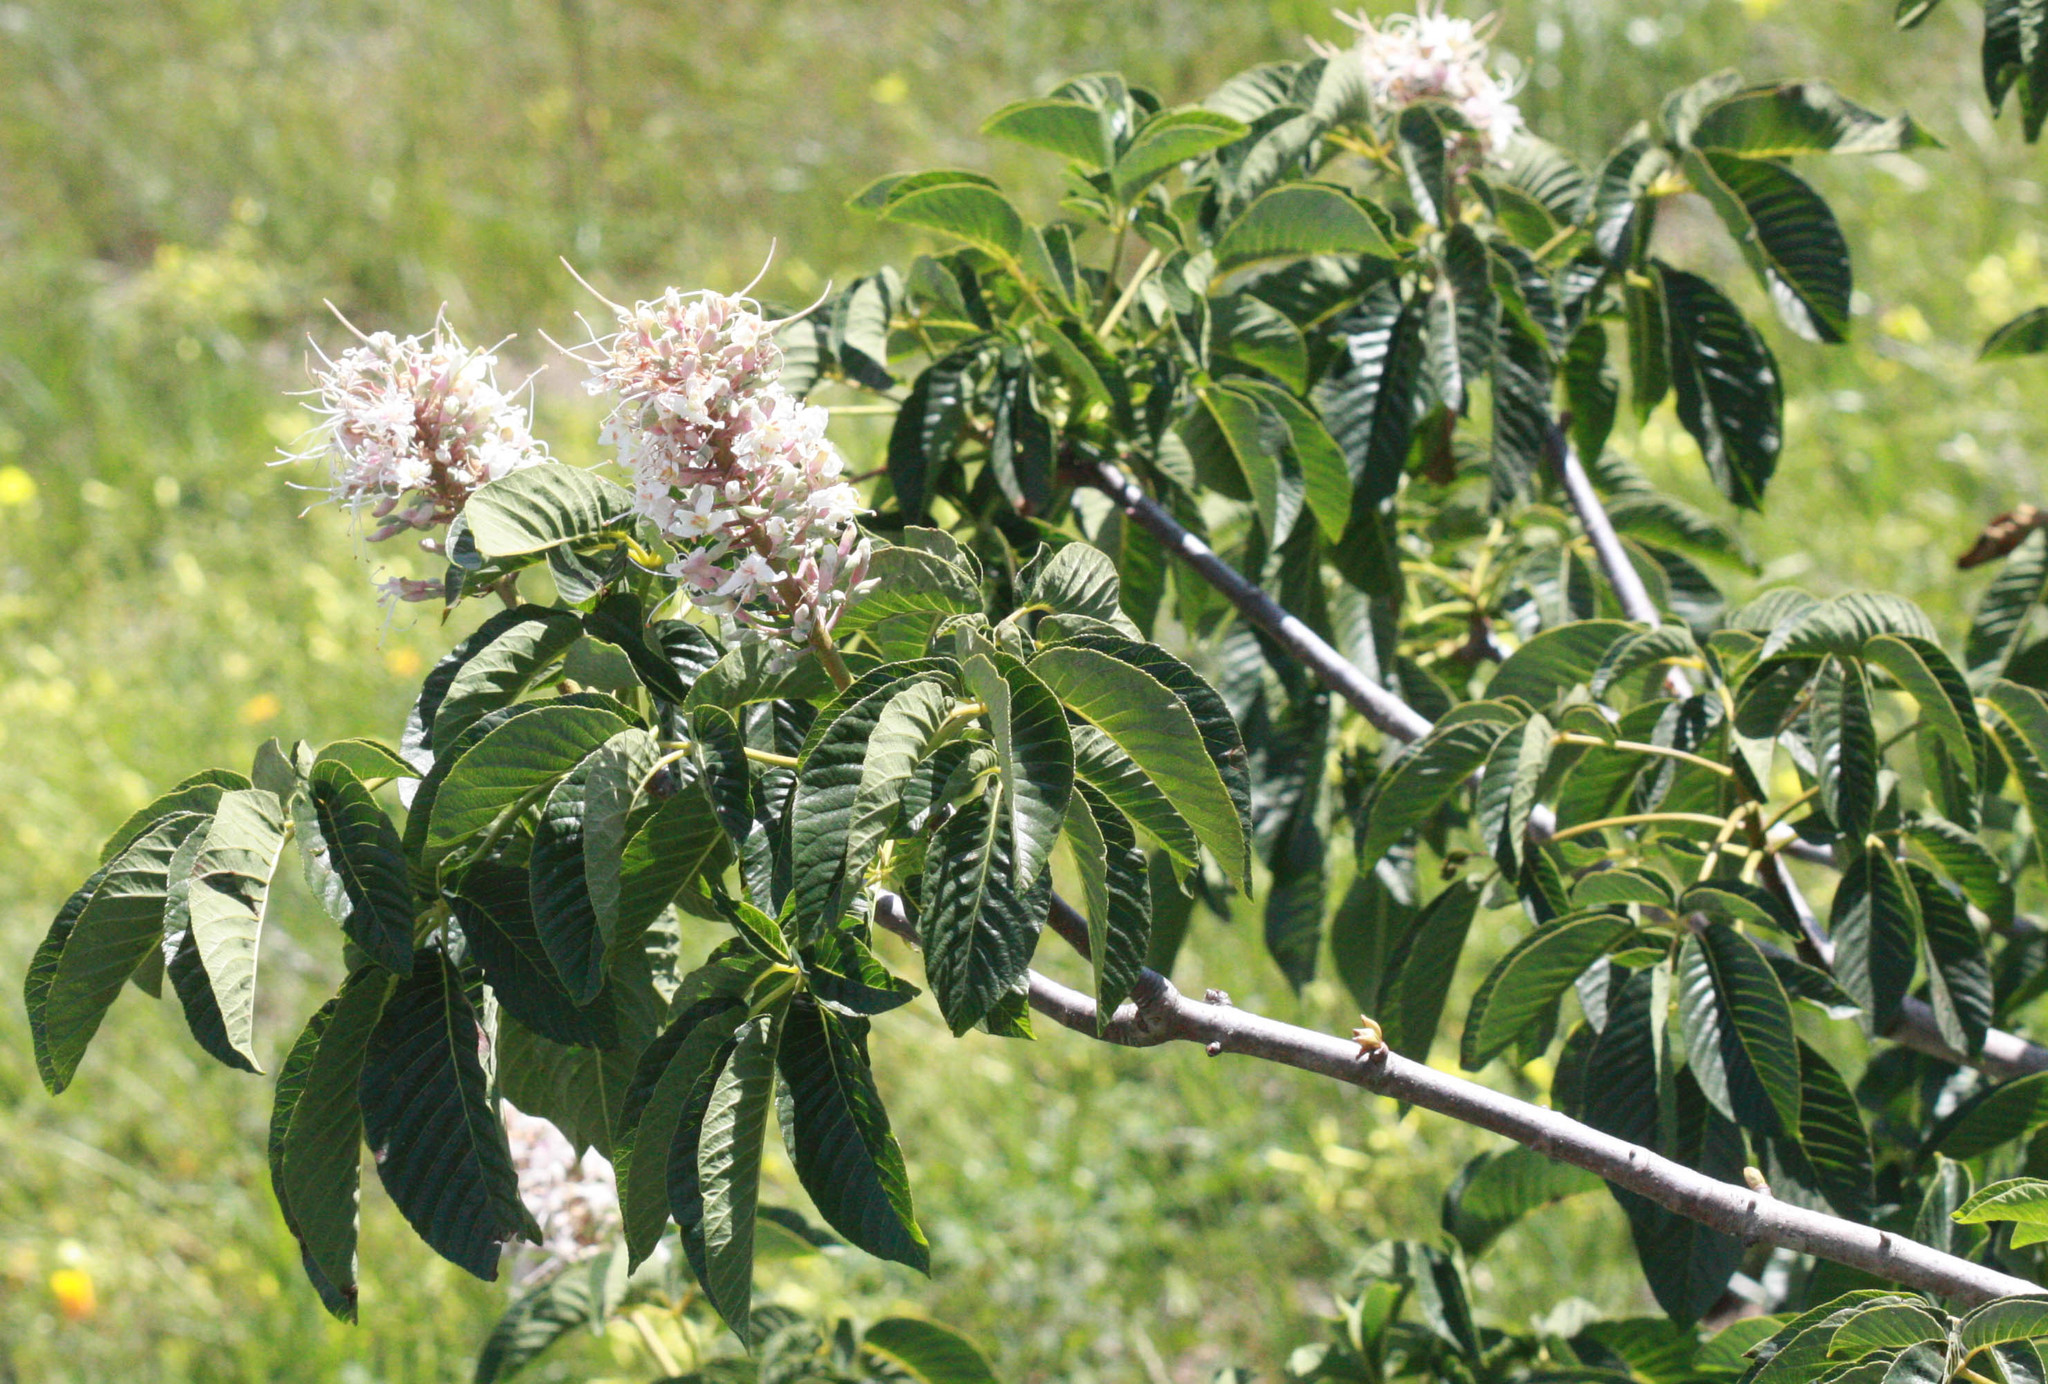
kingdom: Plantae
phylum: Tracheophyta
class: Magnoliopsida
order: Sapindales
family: Sapindaceae
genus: Aesculus
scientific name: Aesculus californica
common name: California buckeye
